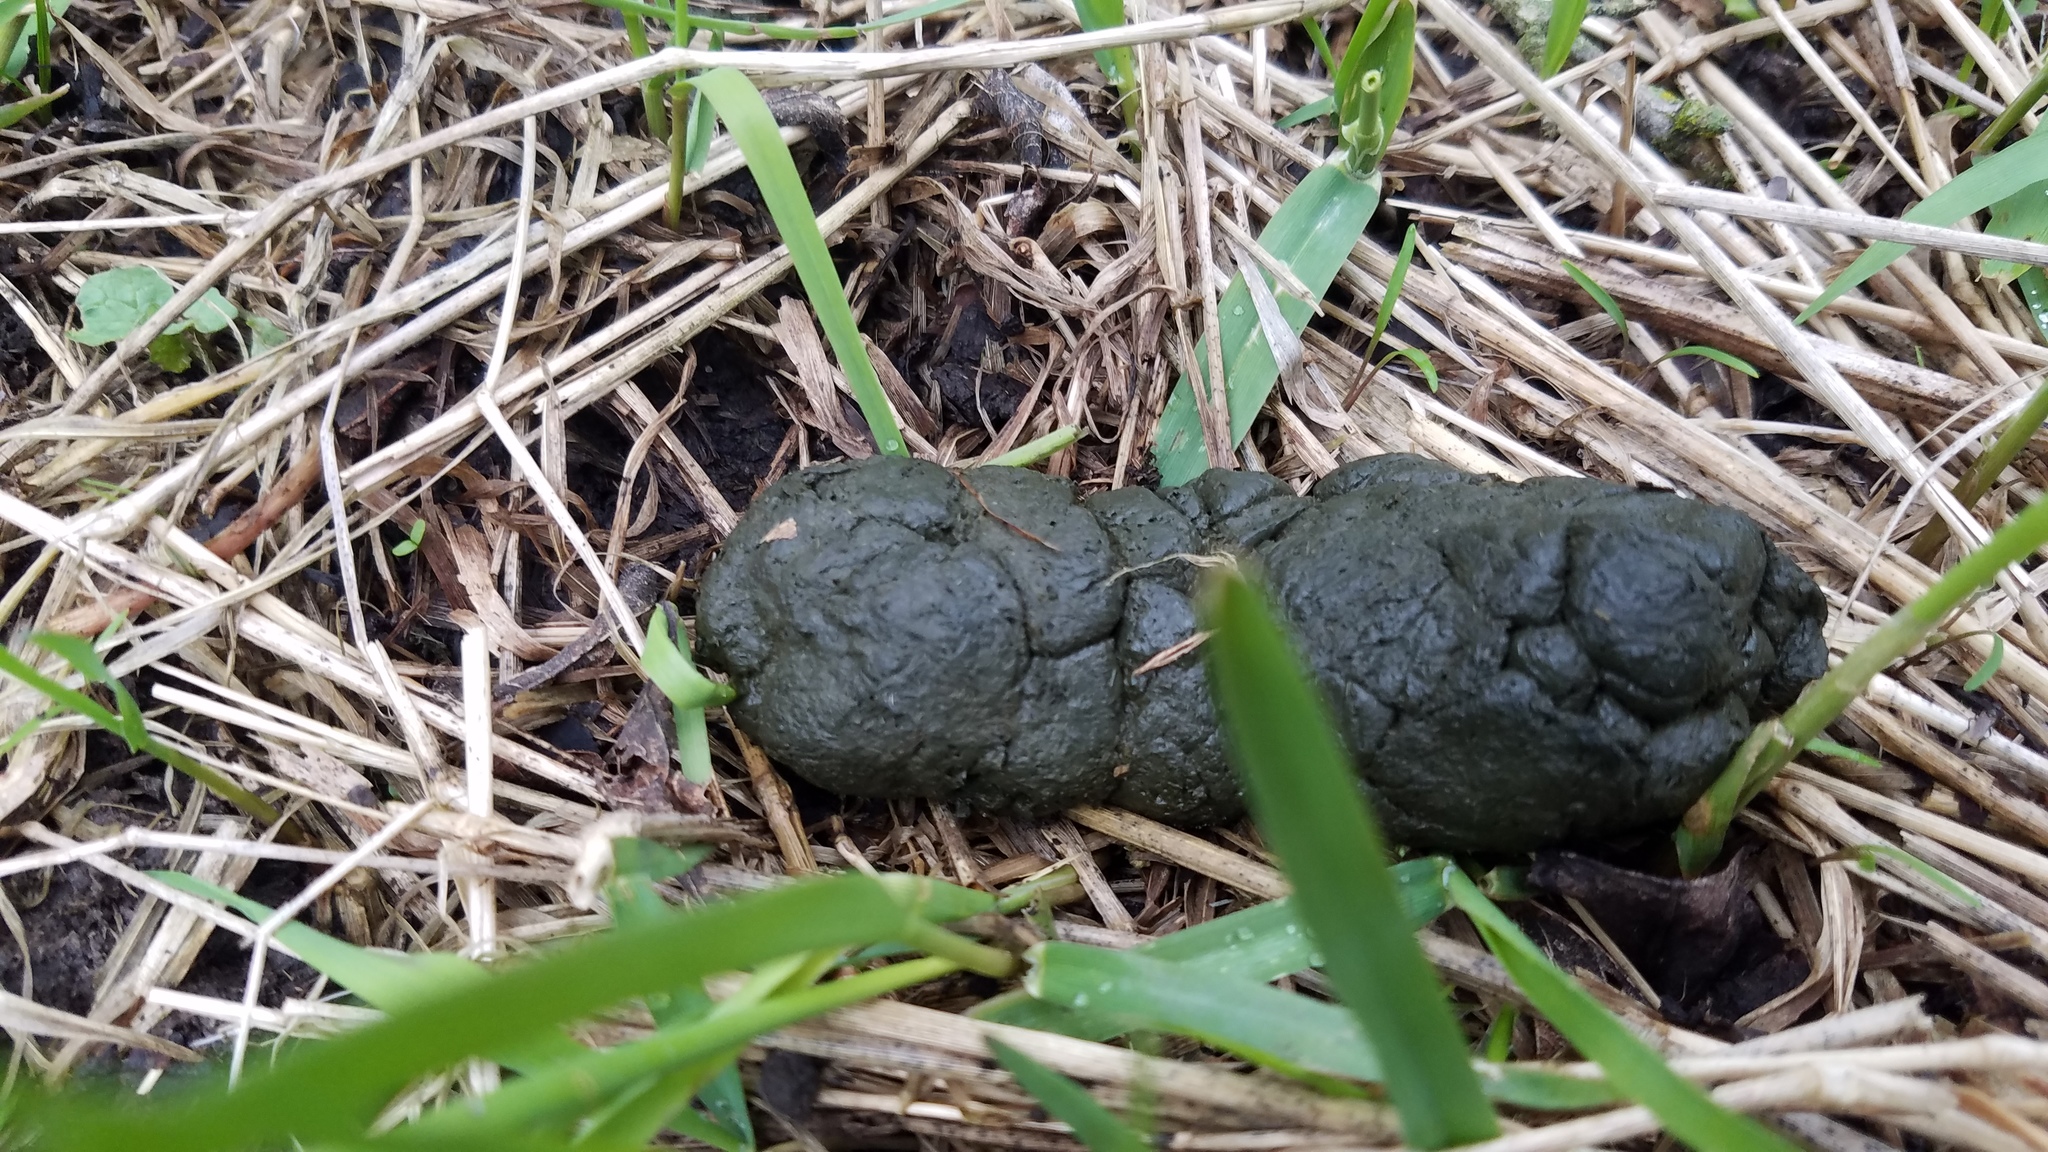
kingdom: Animalia
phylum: Chordata
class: Mammalia
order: Artiodactyla
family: Cervidae
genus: Odocoileus
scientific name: Odocoileus virginianus
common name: White-tailed deer
